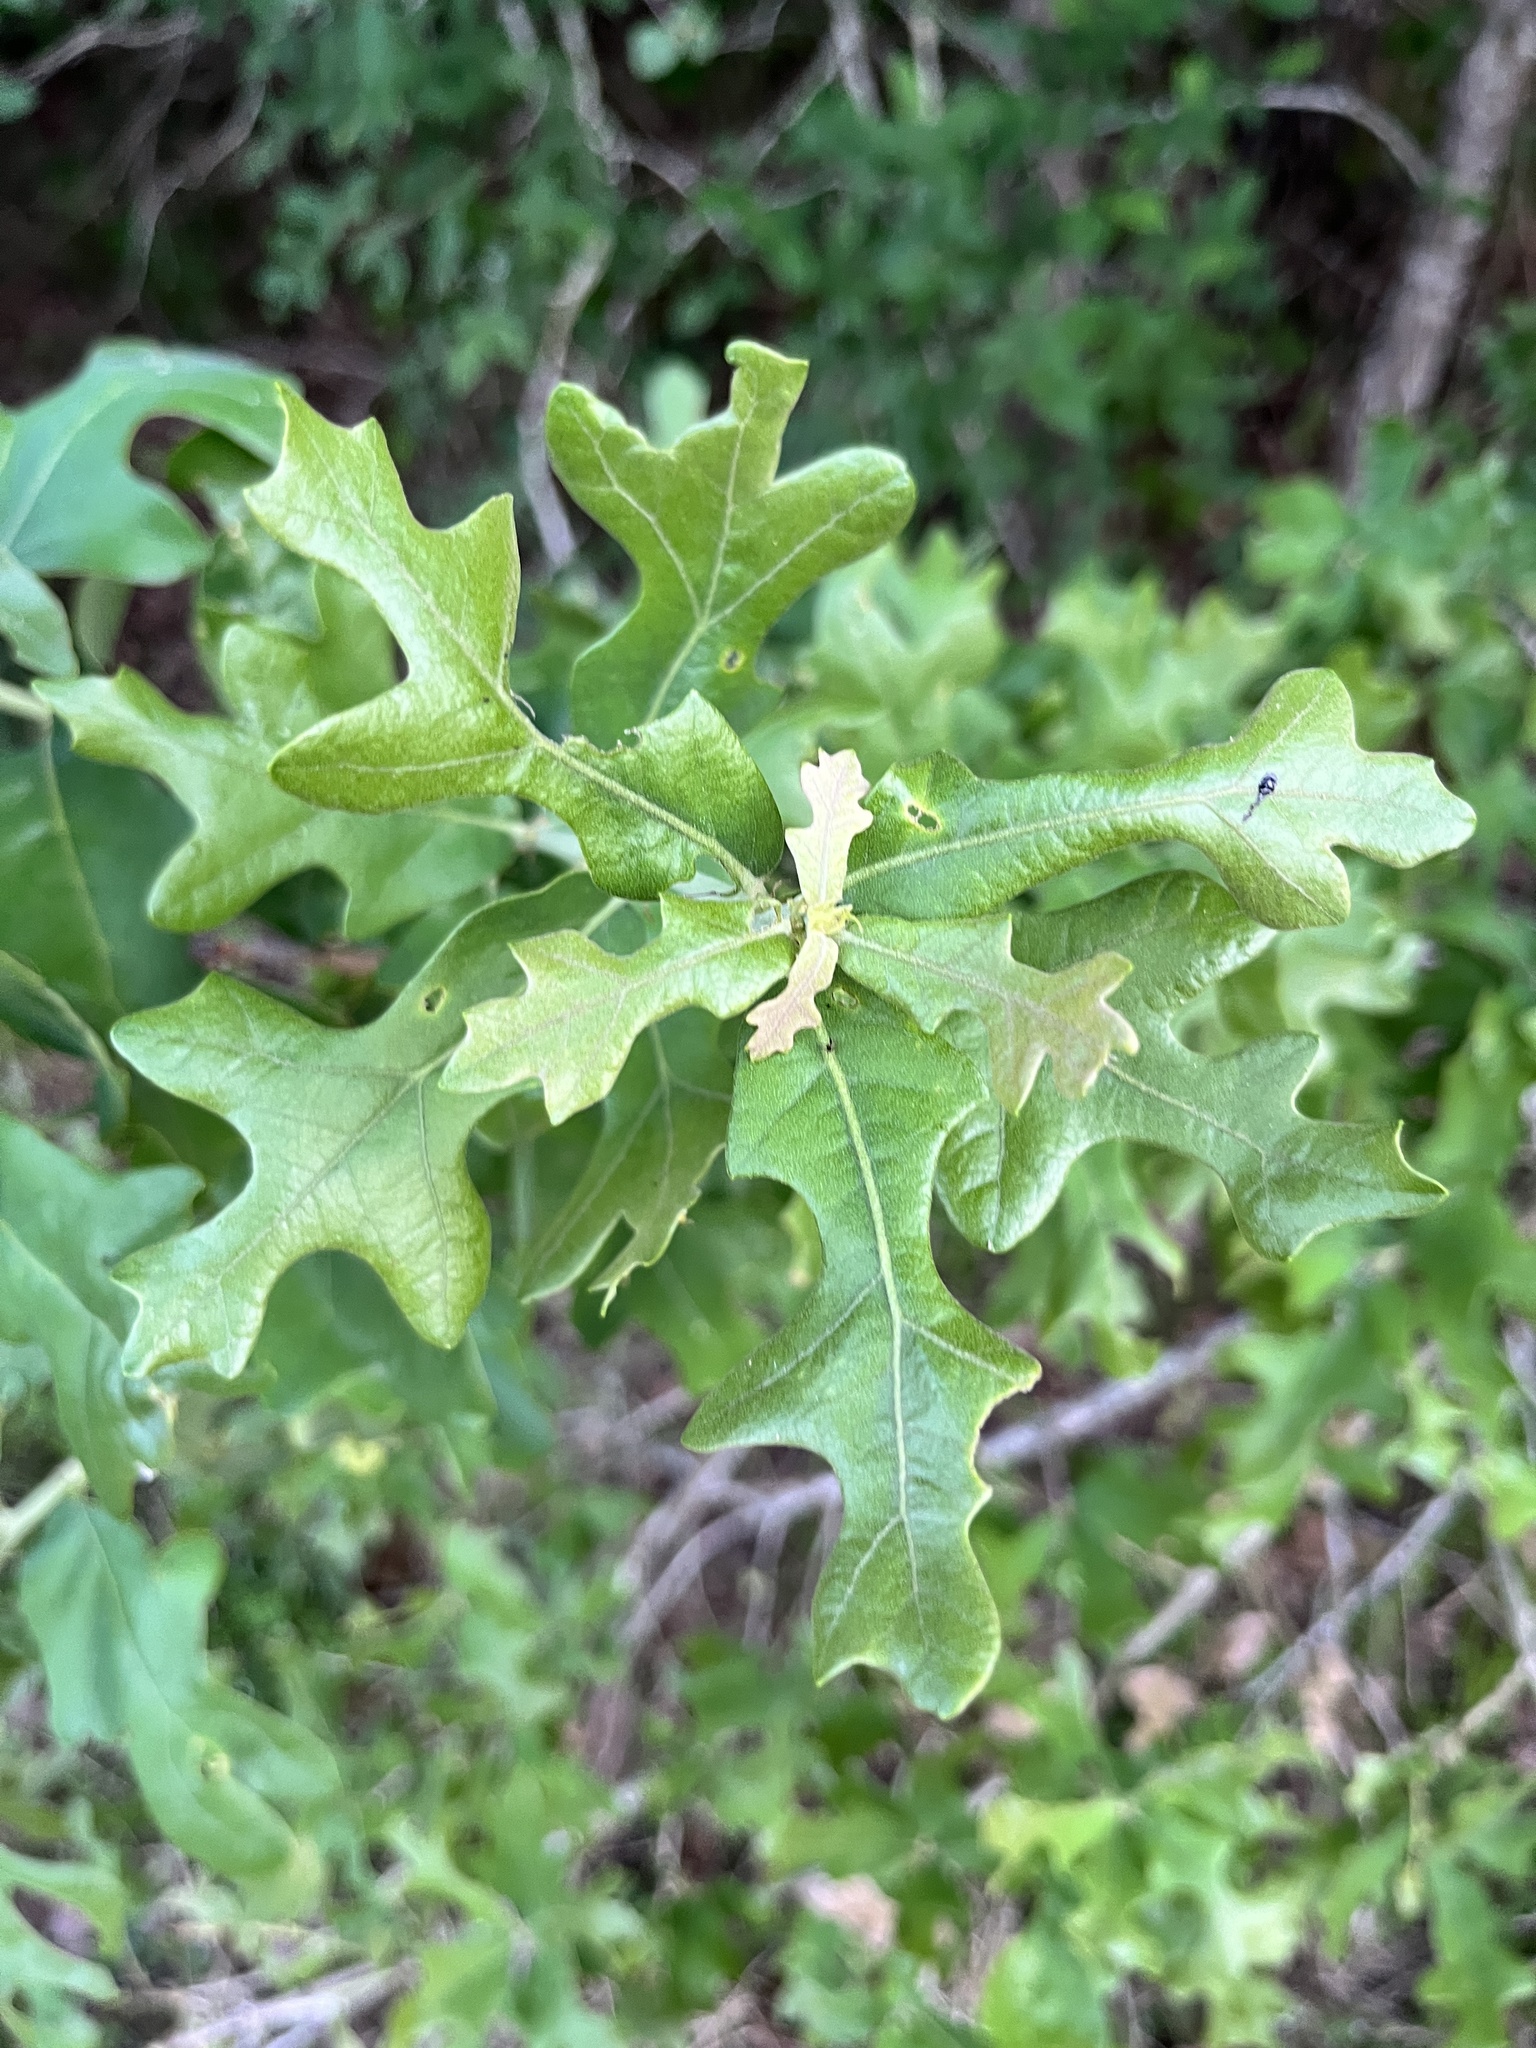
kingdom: Plantae
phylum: Tracheophyta
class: Magnoliopsida
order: Fagales
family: Fagaceae
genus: Quercus
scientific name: Quercus stellata
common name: Post oak
